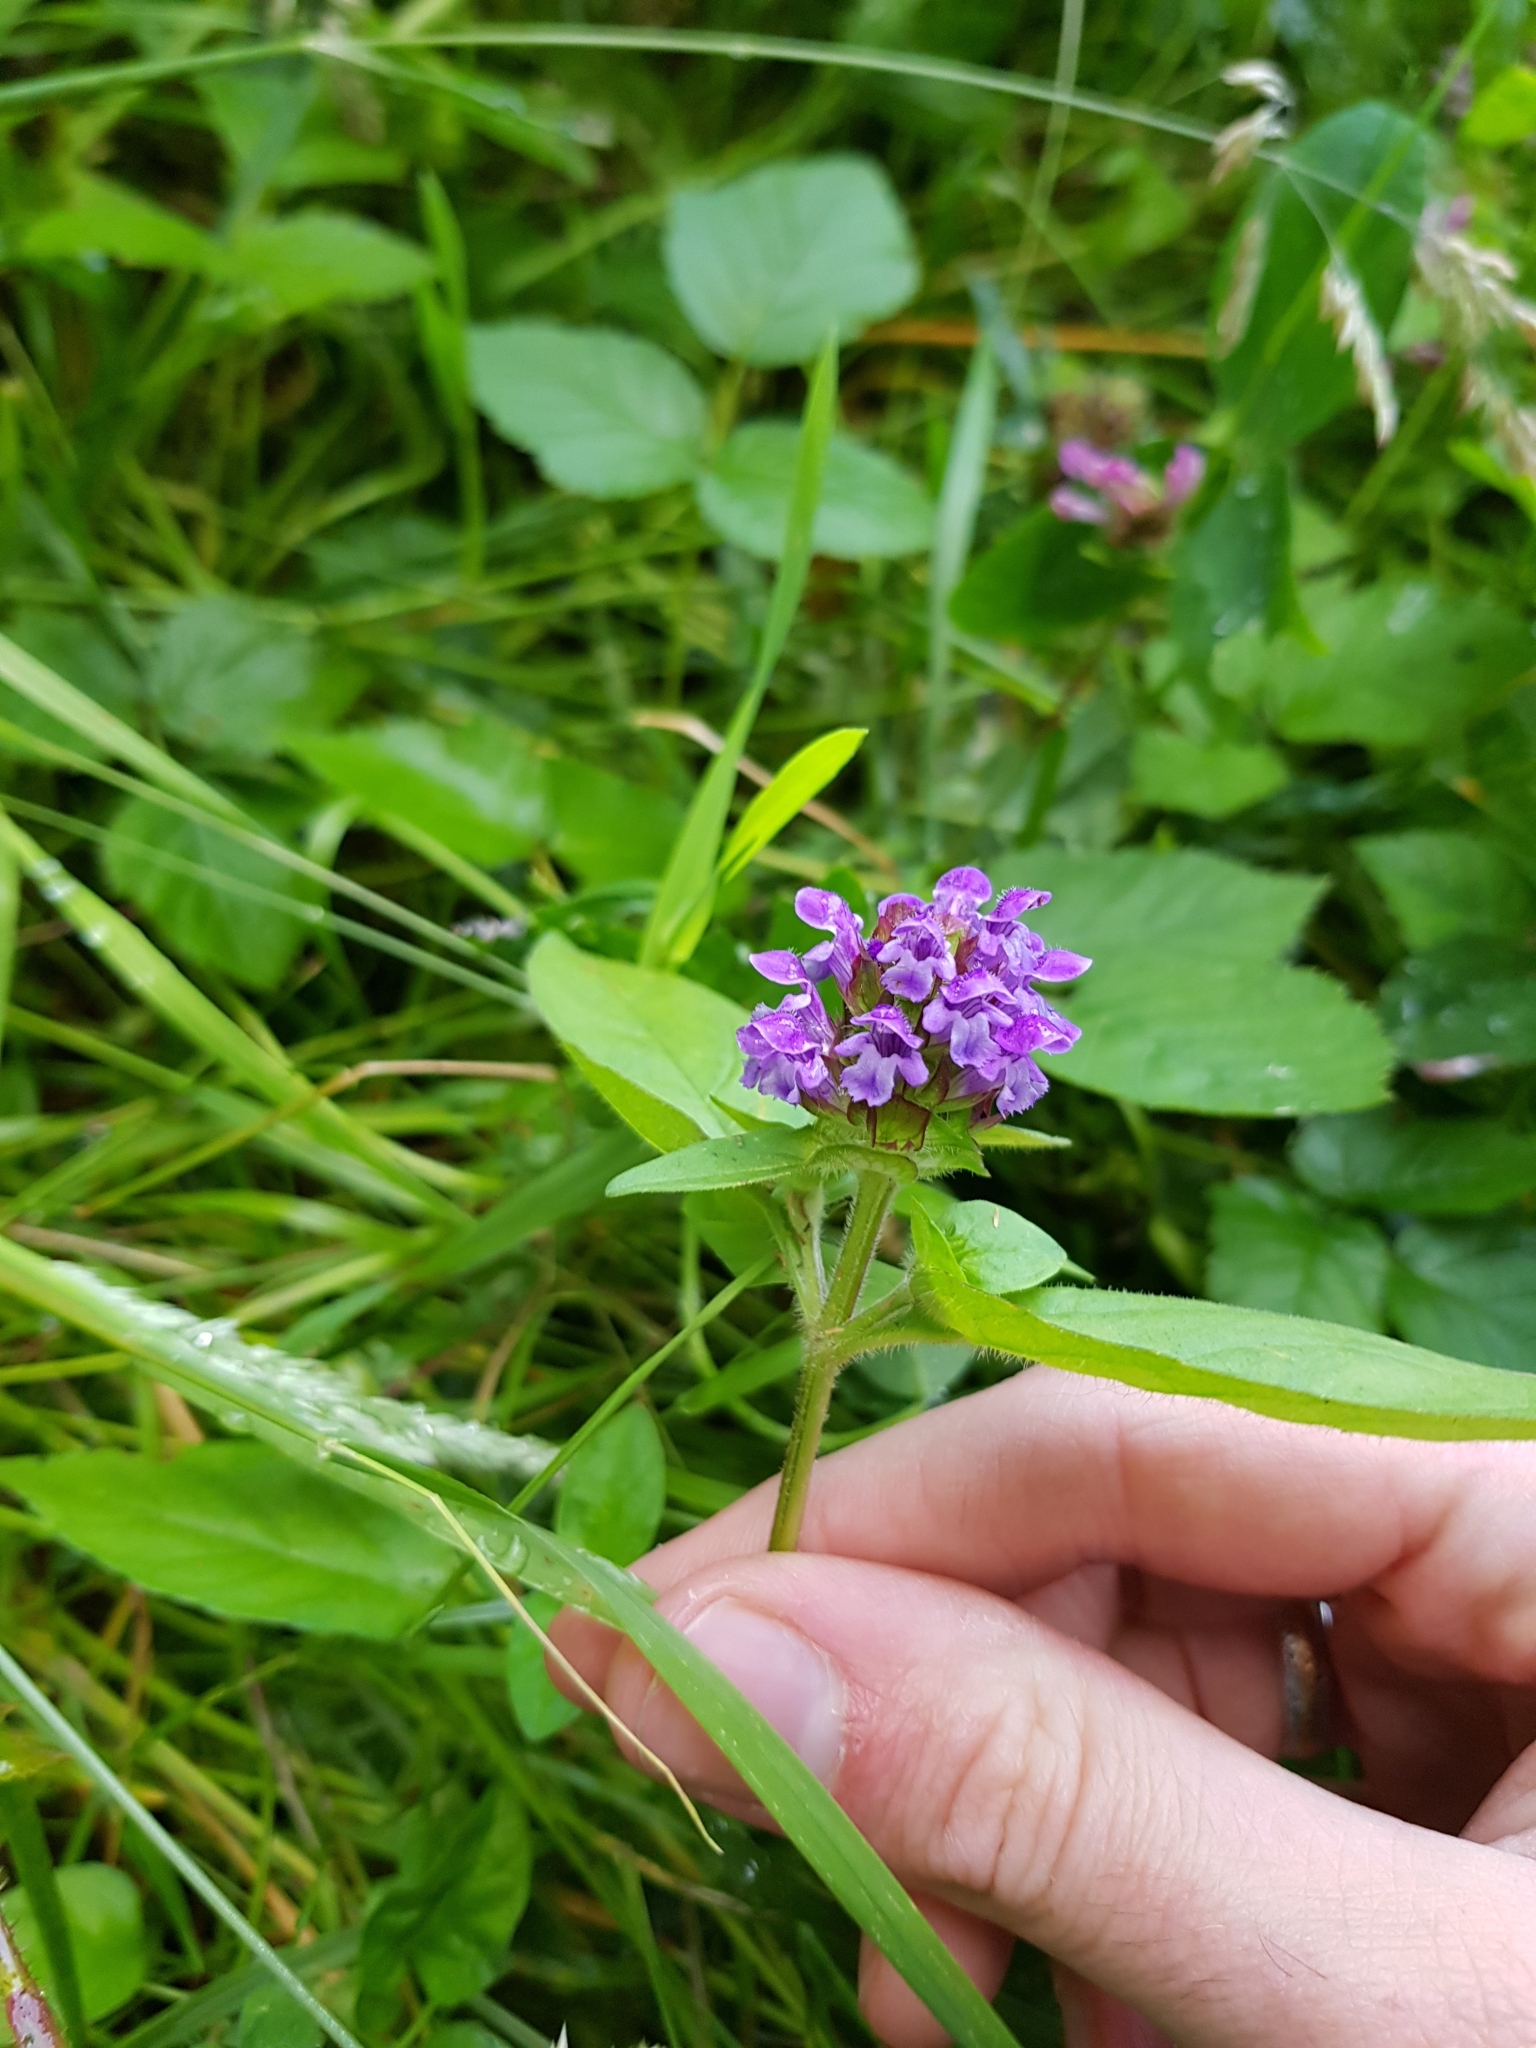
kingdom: Plantae
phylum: Tracheophyta
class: Magnoliopsida
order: Lamiales
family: Lamiaceae
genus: Prunella
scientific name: Prunella vulgaris
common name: Heal-all
